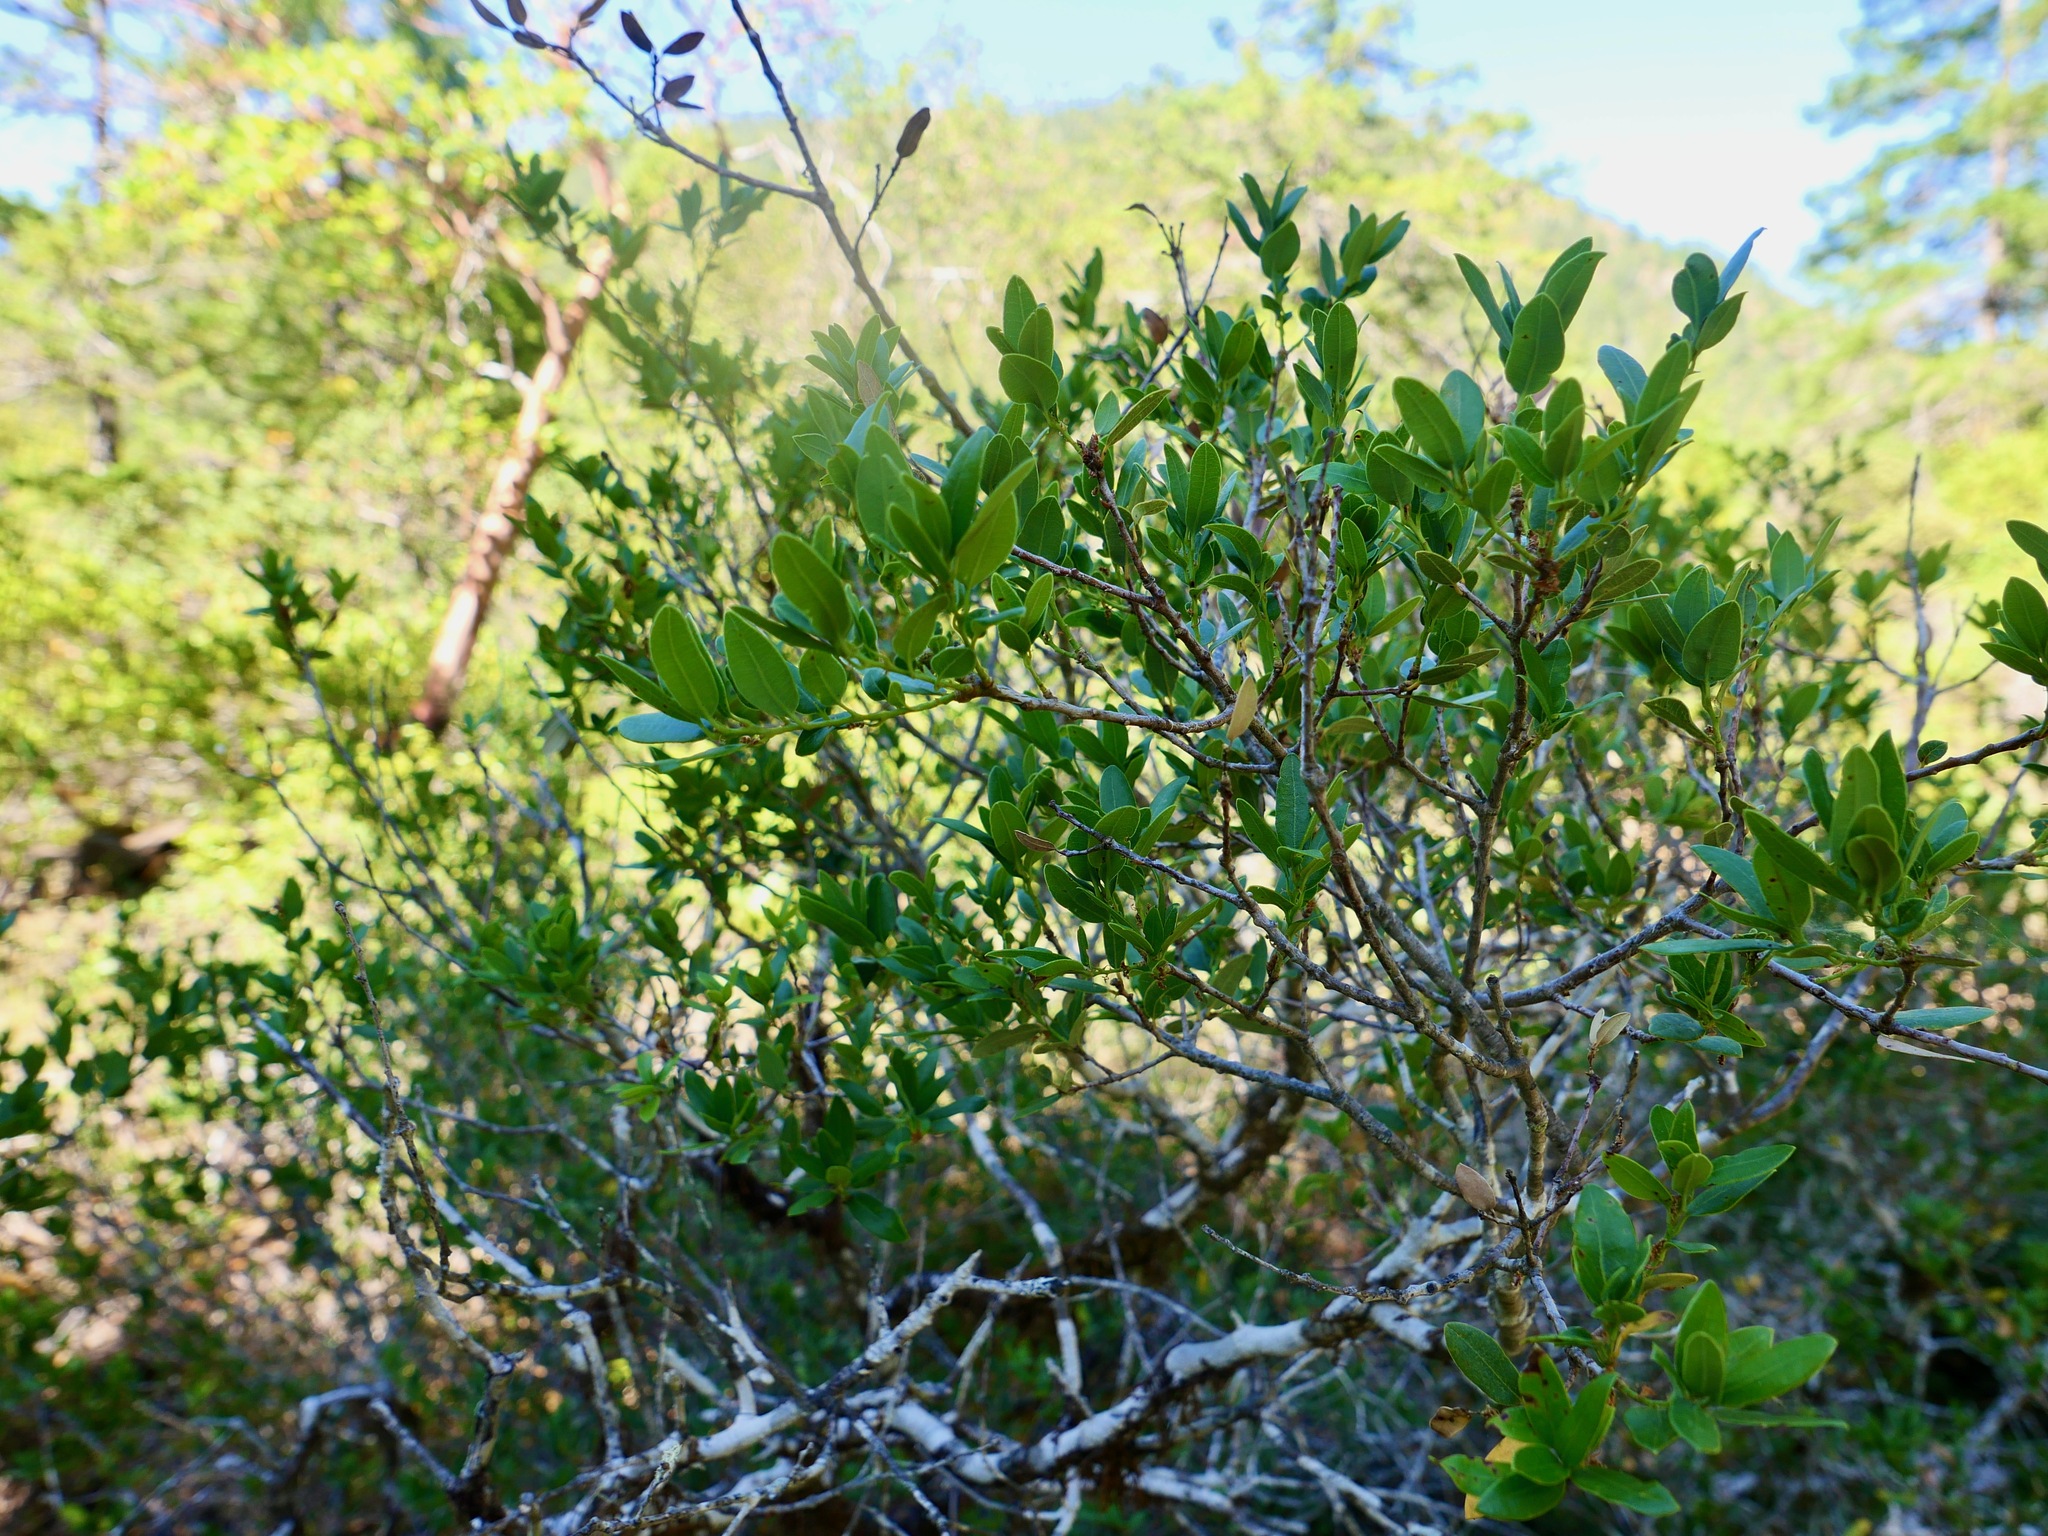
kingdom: Plantae
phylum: Tracheophyta
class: Magnoliopsida
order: Fagales
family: Fagaceae
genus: Quercus
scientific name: Quercus vacciniifolia
